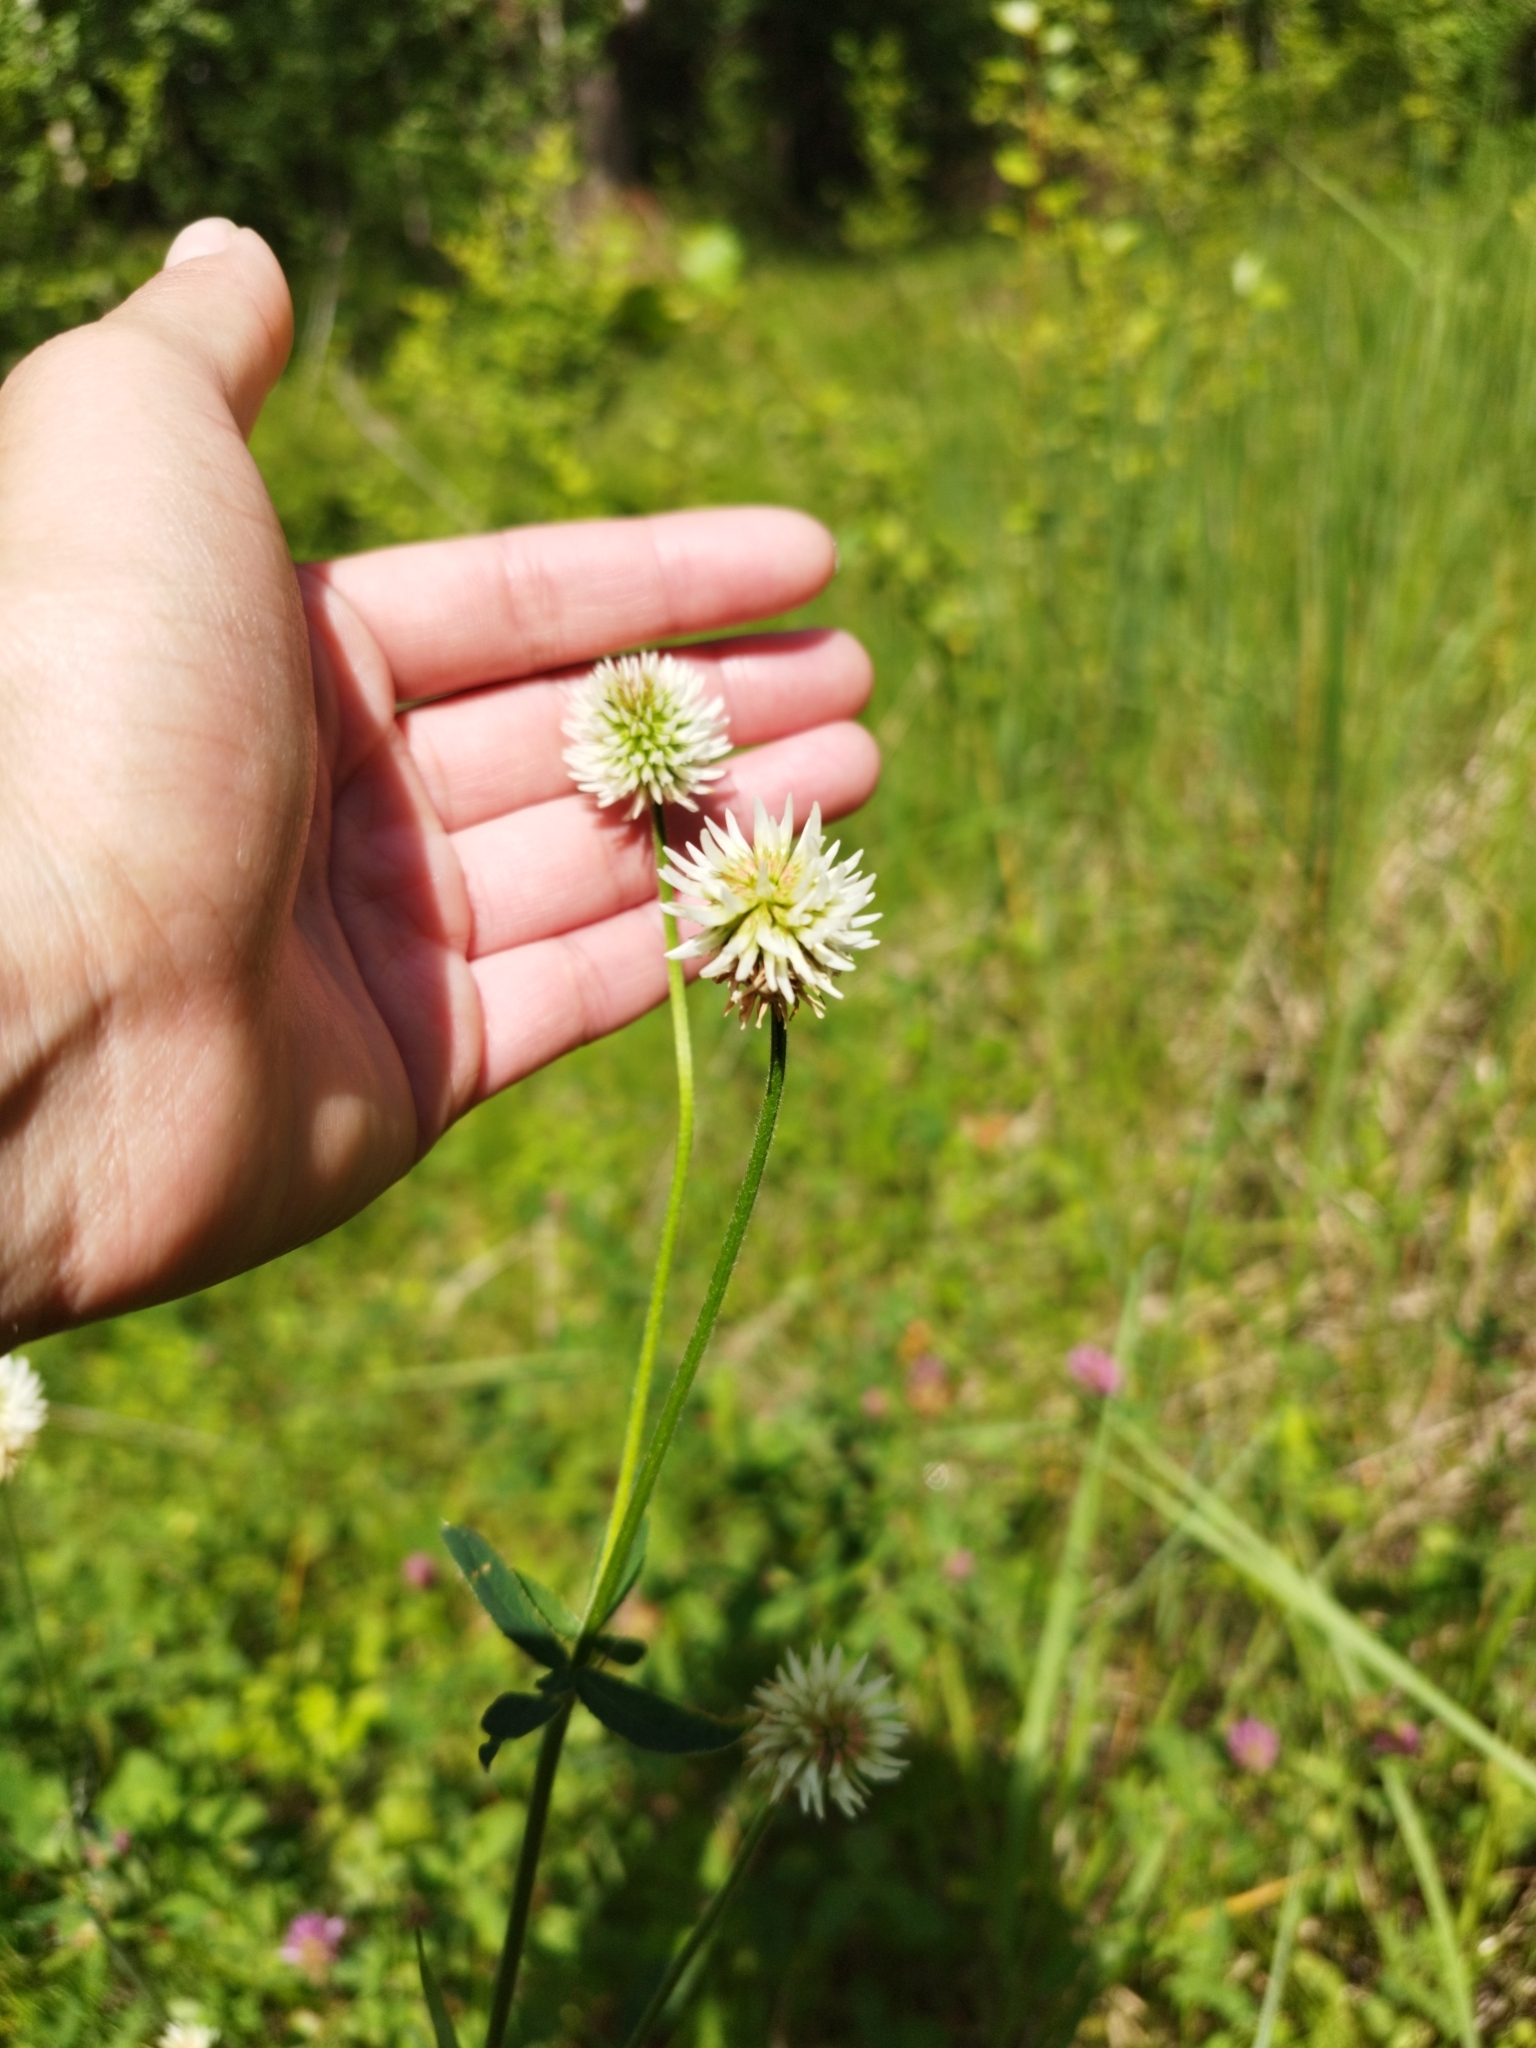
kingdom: Plantae
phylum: Tracheophyta
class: Magnoliopsida
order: Fabales
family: Fabaceae
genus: Trifolium
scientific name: Trifolium montanum
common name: Mountain clover
